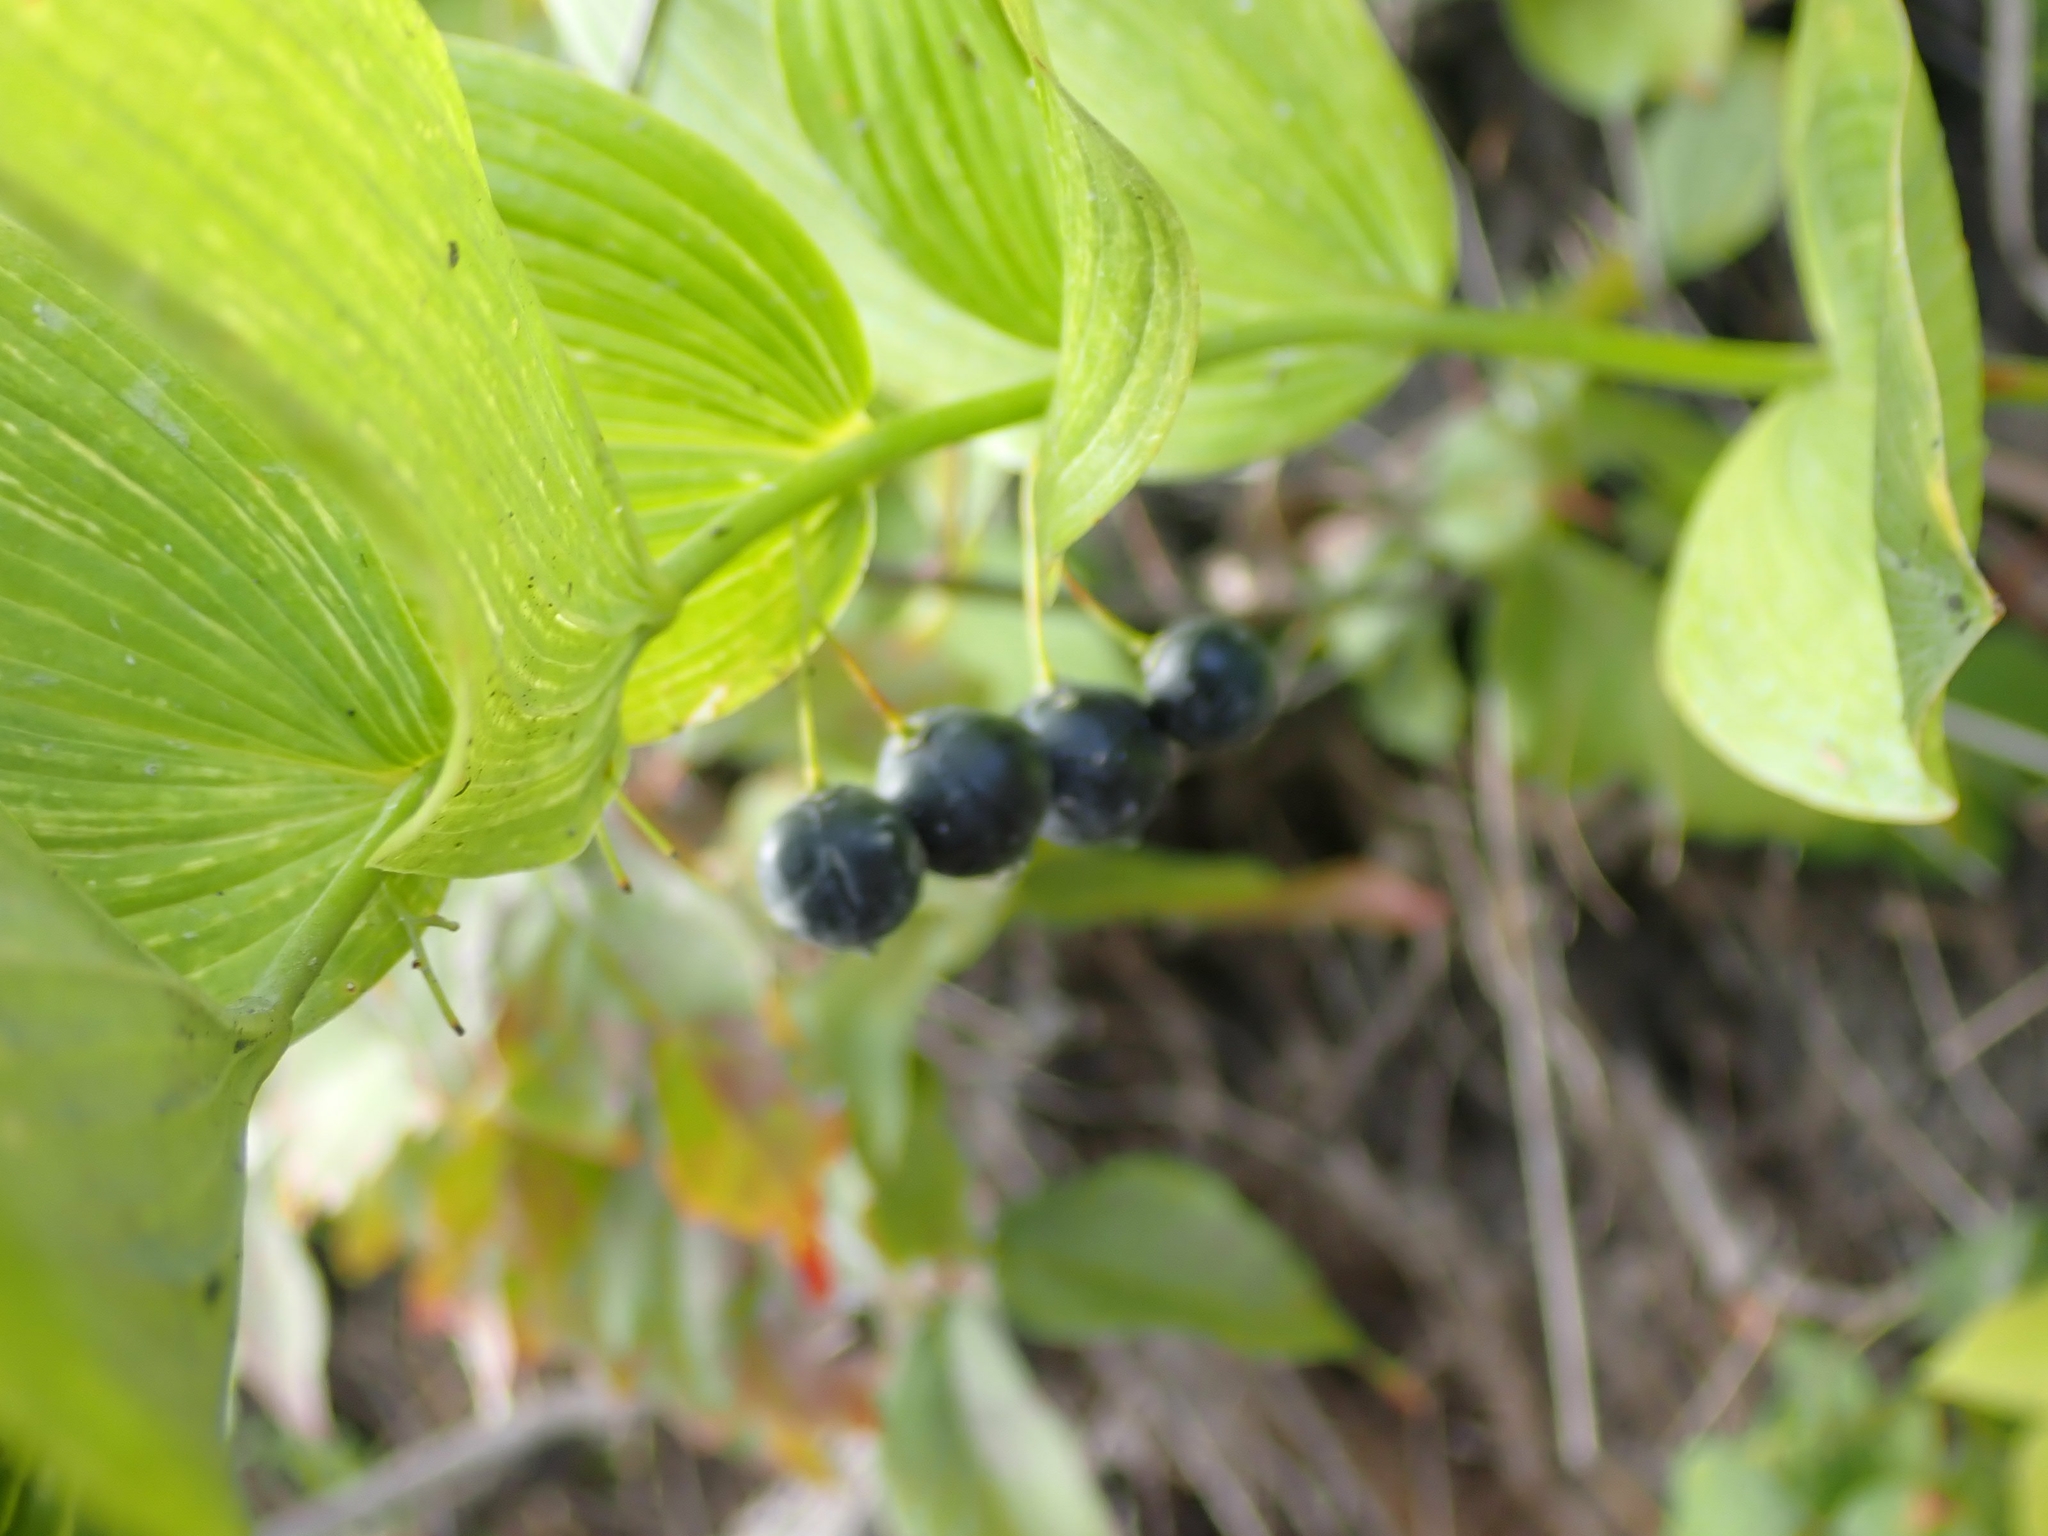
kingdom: Plantae
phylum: Tracheophyta
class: Liliopsida
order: Asparagales
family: Asparagaceae
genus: Polygonatum
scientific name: Polygonatum biflorum
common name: American solomon's-seal
